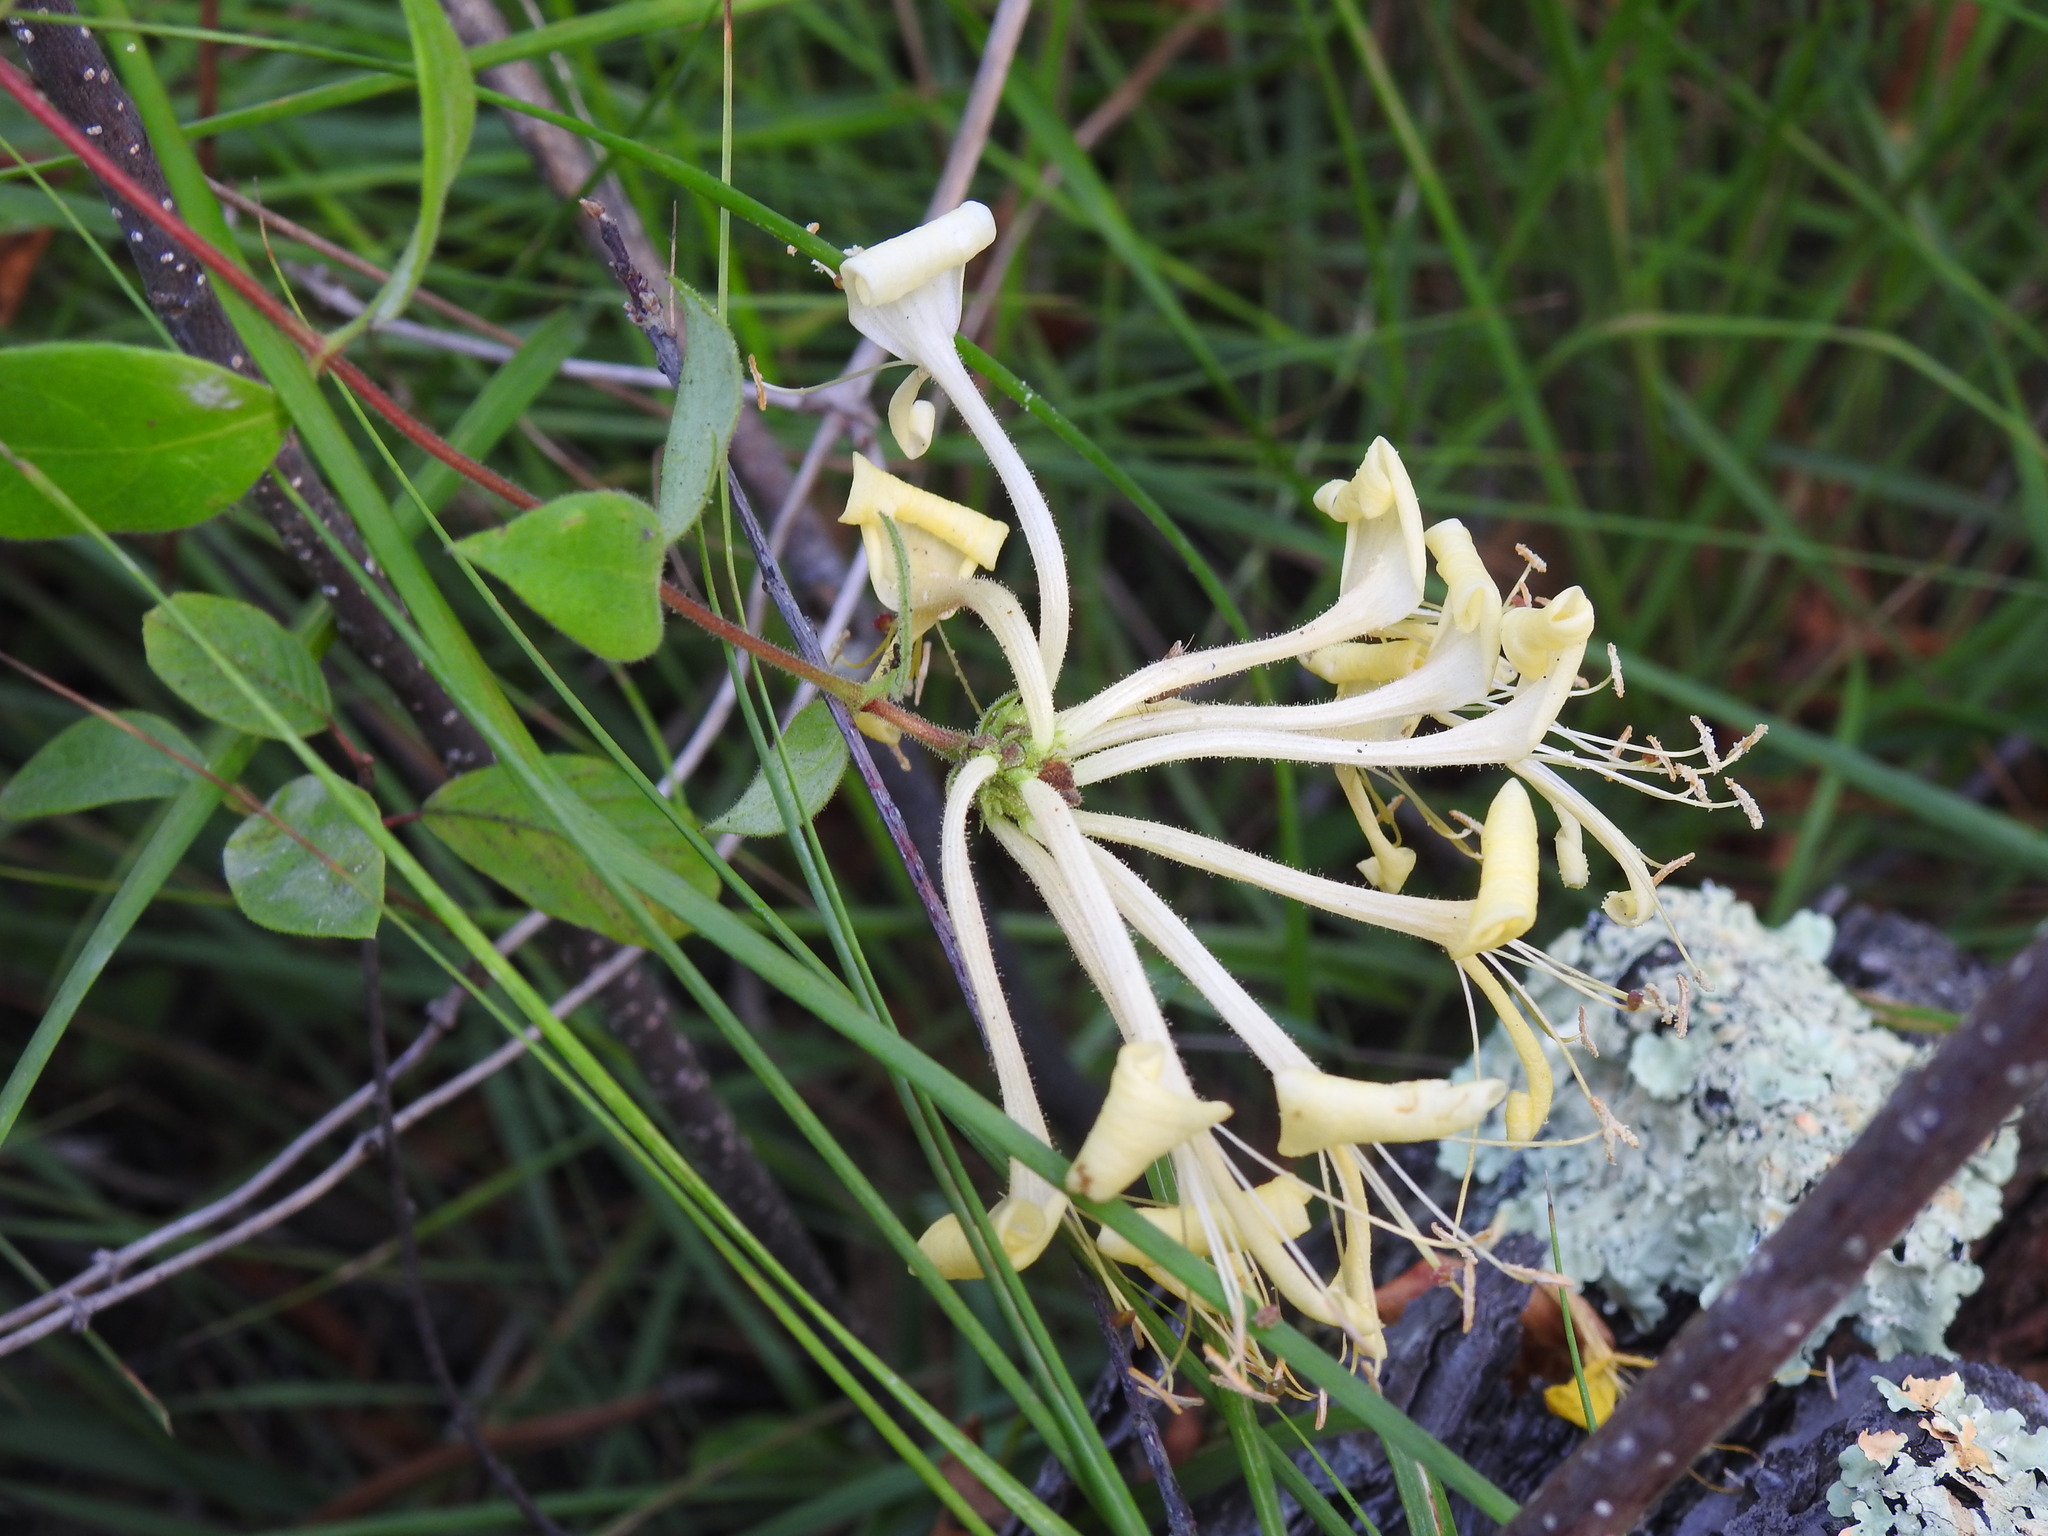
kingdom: Plantae
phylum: Tracheophyta
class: Magnoliopsida
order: Dipsacales
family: Caprifoliaceae
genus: Lonicera
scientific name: Lonicera periclymenum
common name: European honeysuckle
